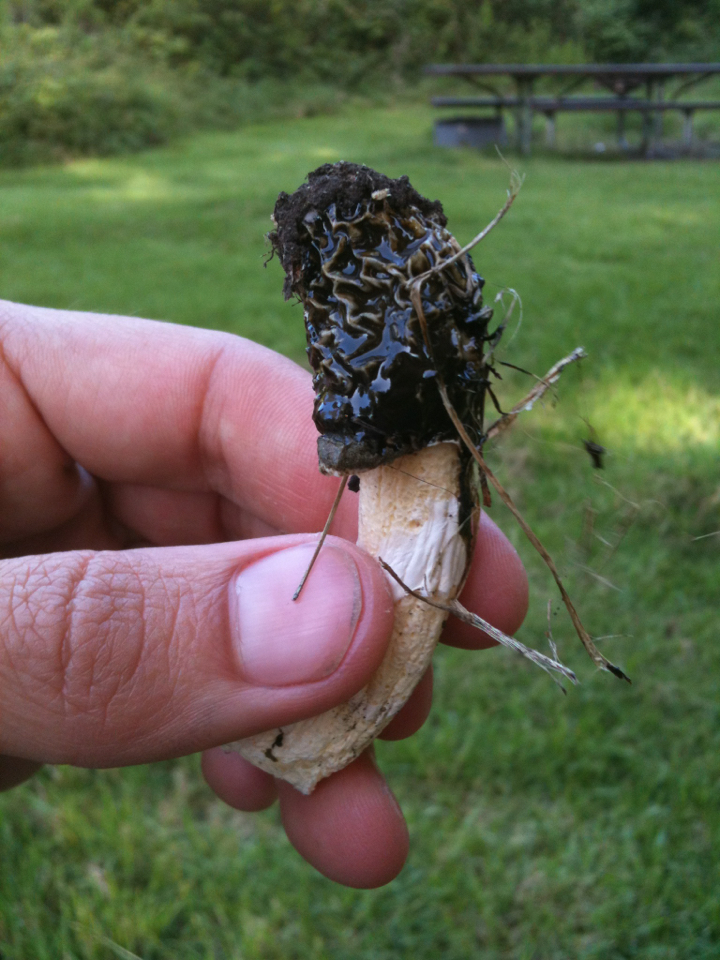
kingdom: Fungi
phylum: Basidiomycota
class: Agaricomycetes
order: Phallales
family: Phallaceae
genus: Phallus
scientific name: Phallus hadriani
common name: Sand stinkhorn
